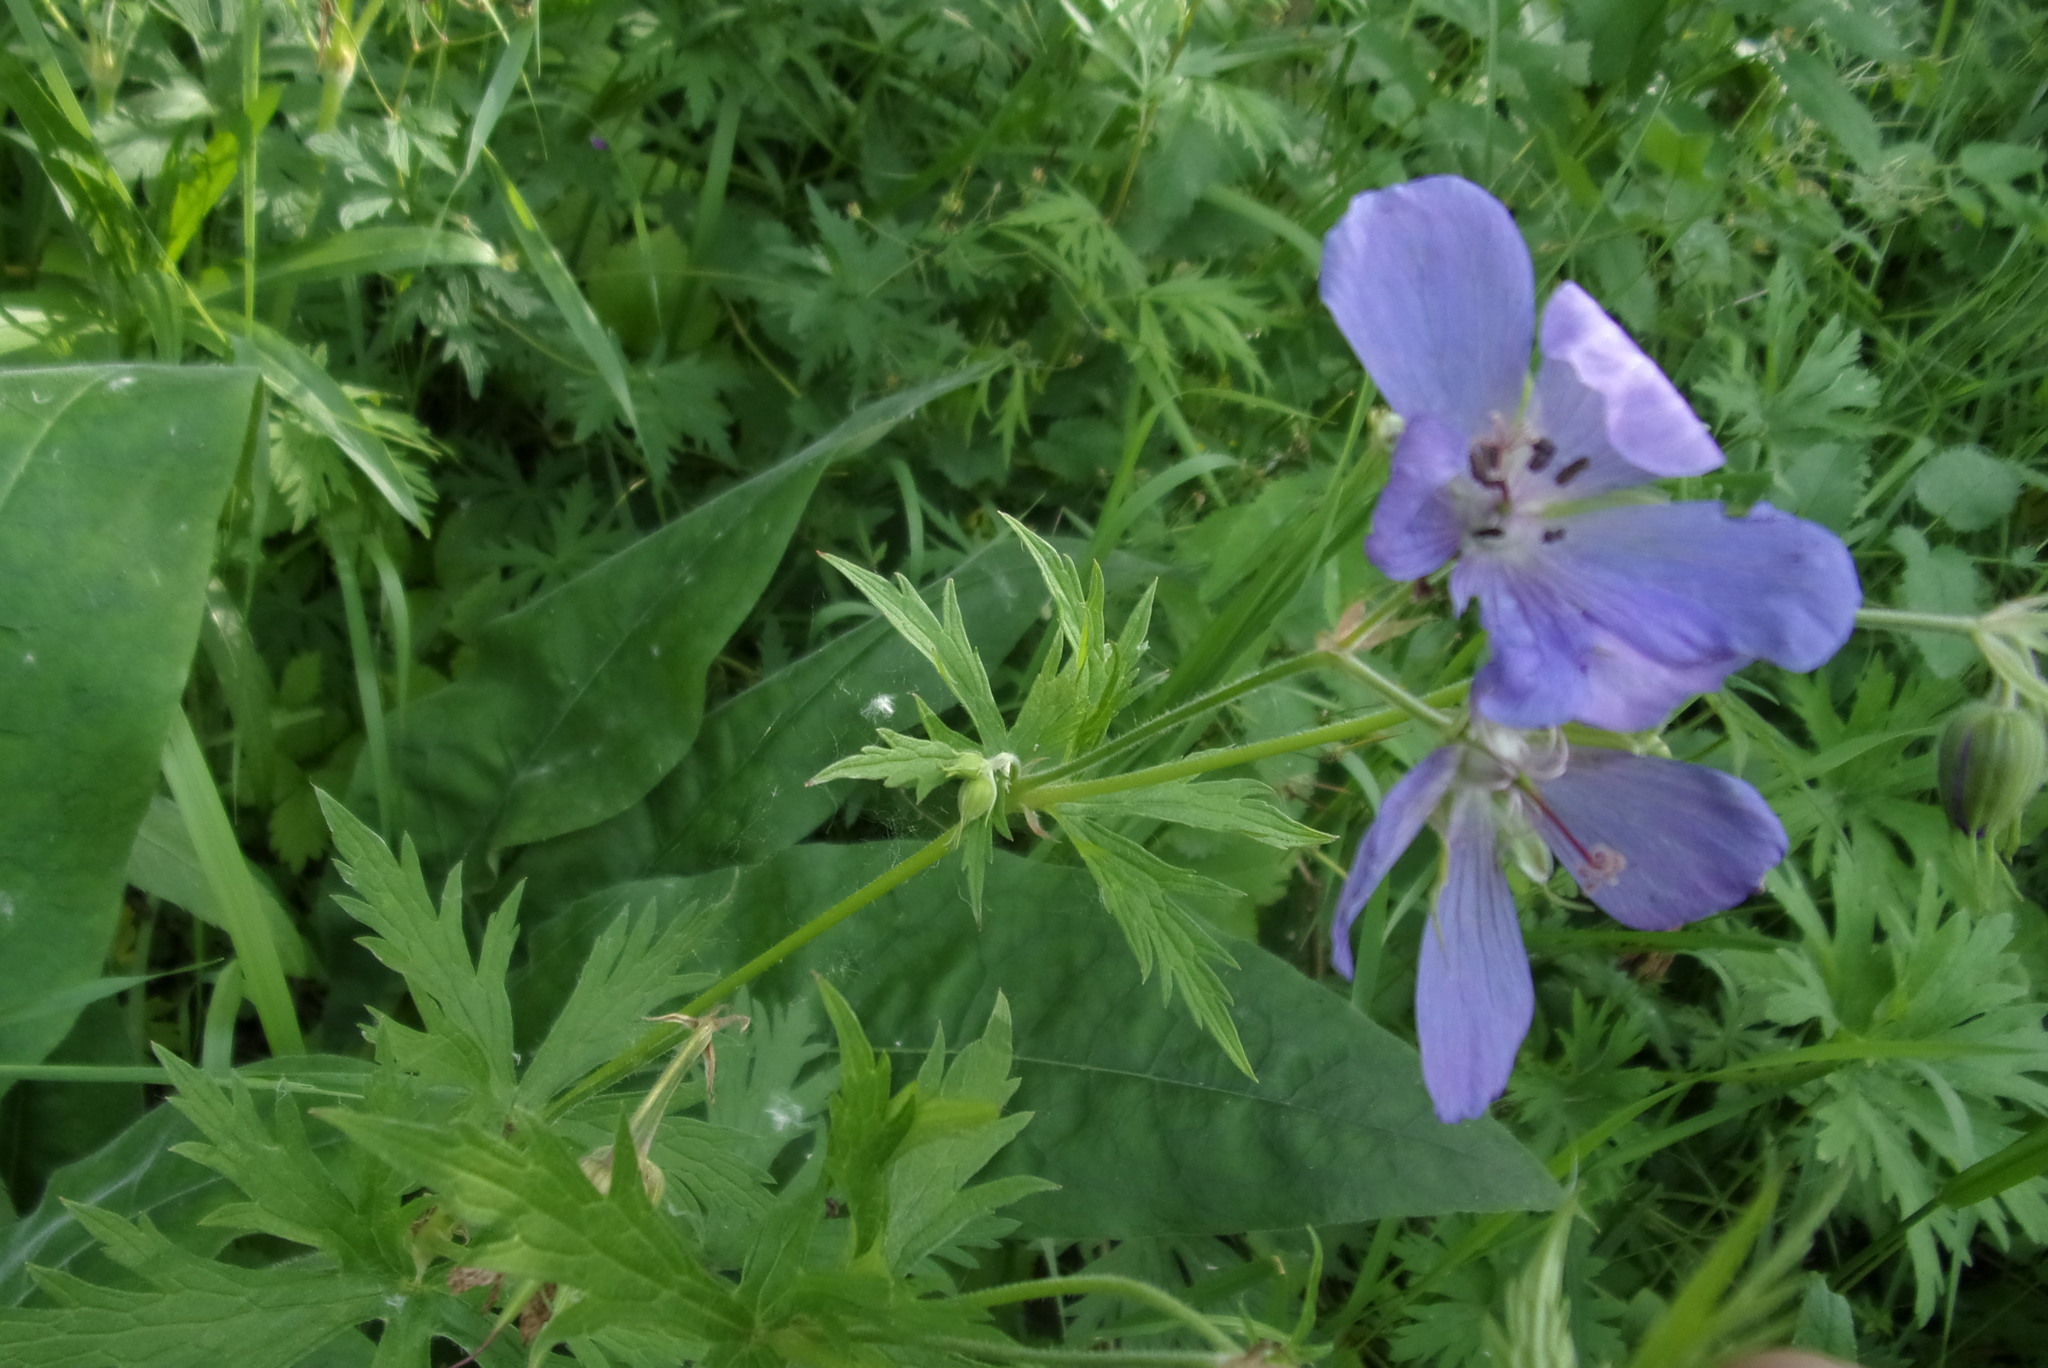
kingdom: Plantae
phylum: Tracheophyta
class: Magnoliopsida
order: Geraniales
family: Geraniaceae
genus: Geranium
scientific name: Geranium pratense
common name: Meadow crane's-bill
